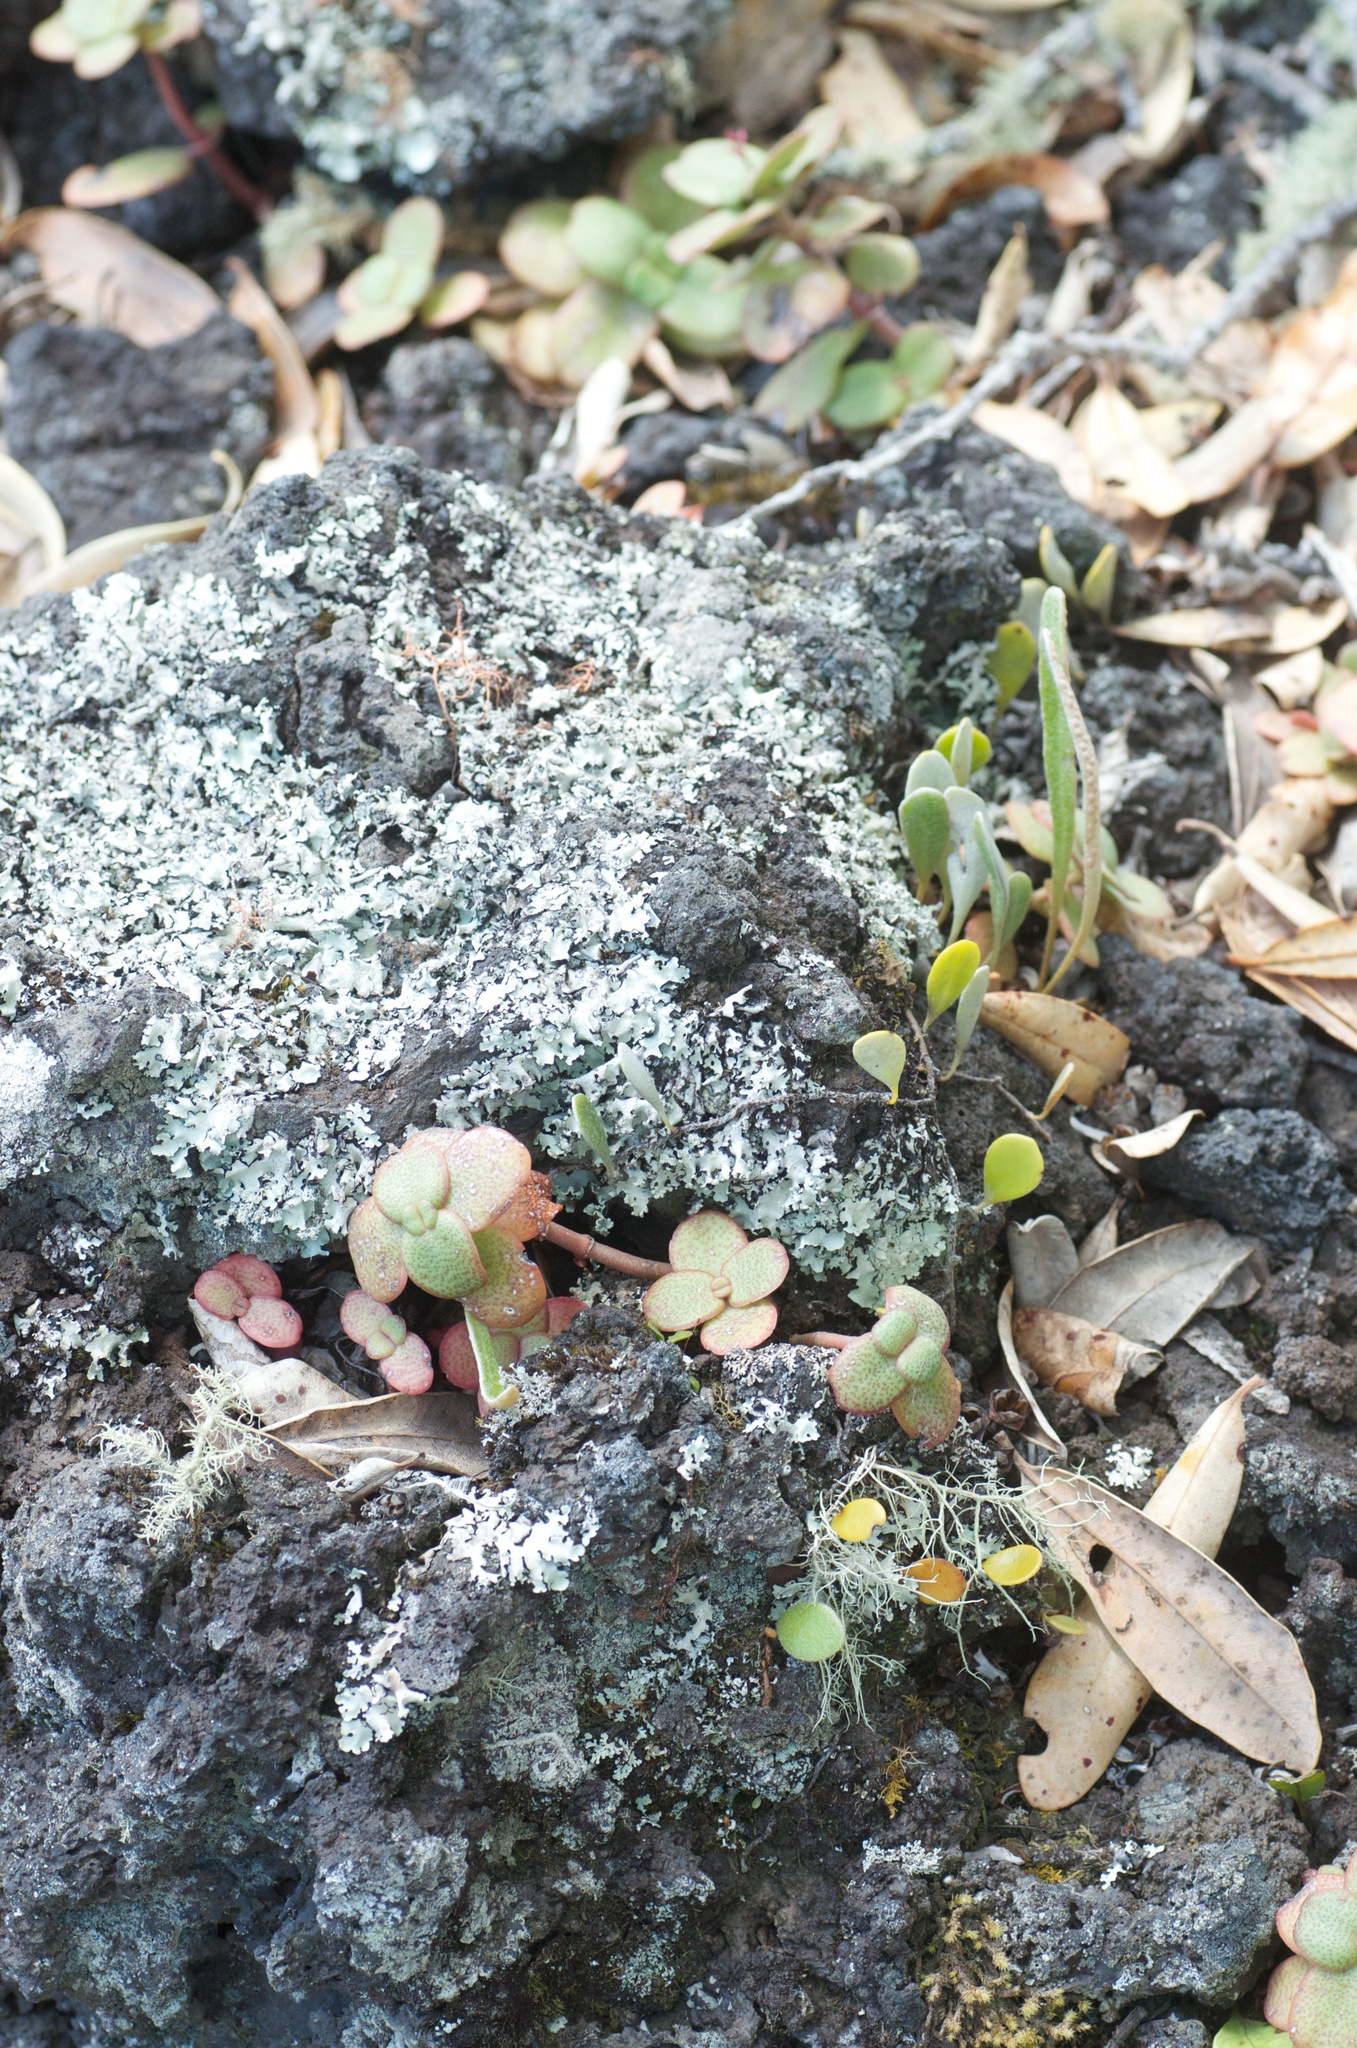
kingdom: Plantae
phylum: Tracheophyta
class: Magnoliopsida
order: Saxifragales
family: Crassulaceae
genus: Crassula
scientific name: Crassula multicava
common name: Cape province pygmyweed
